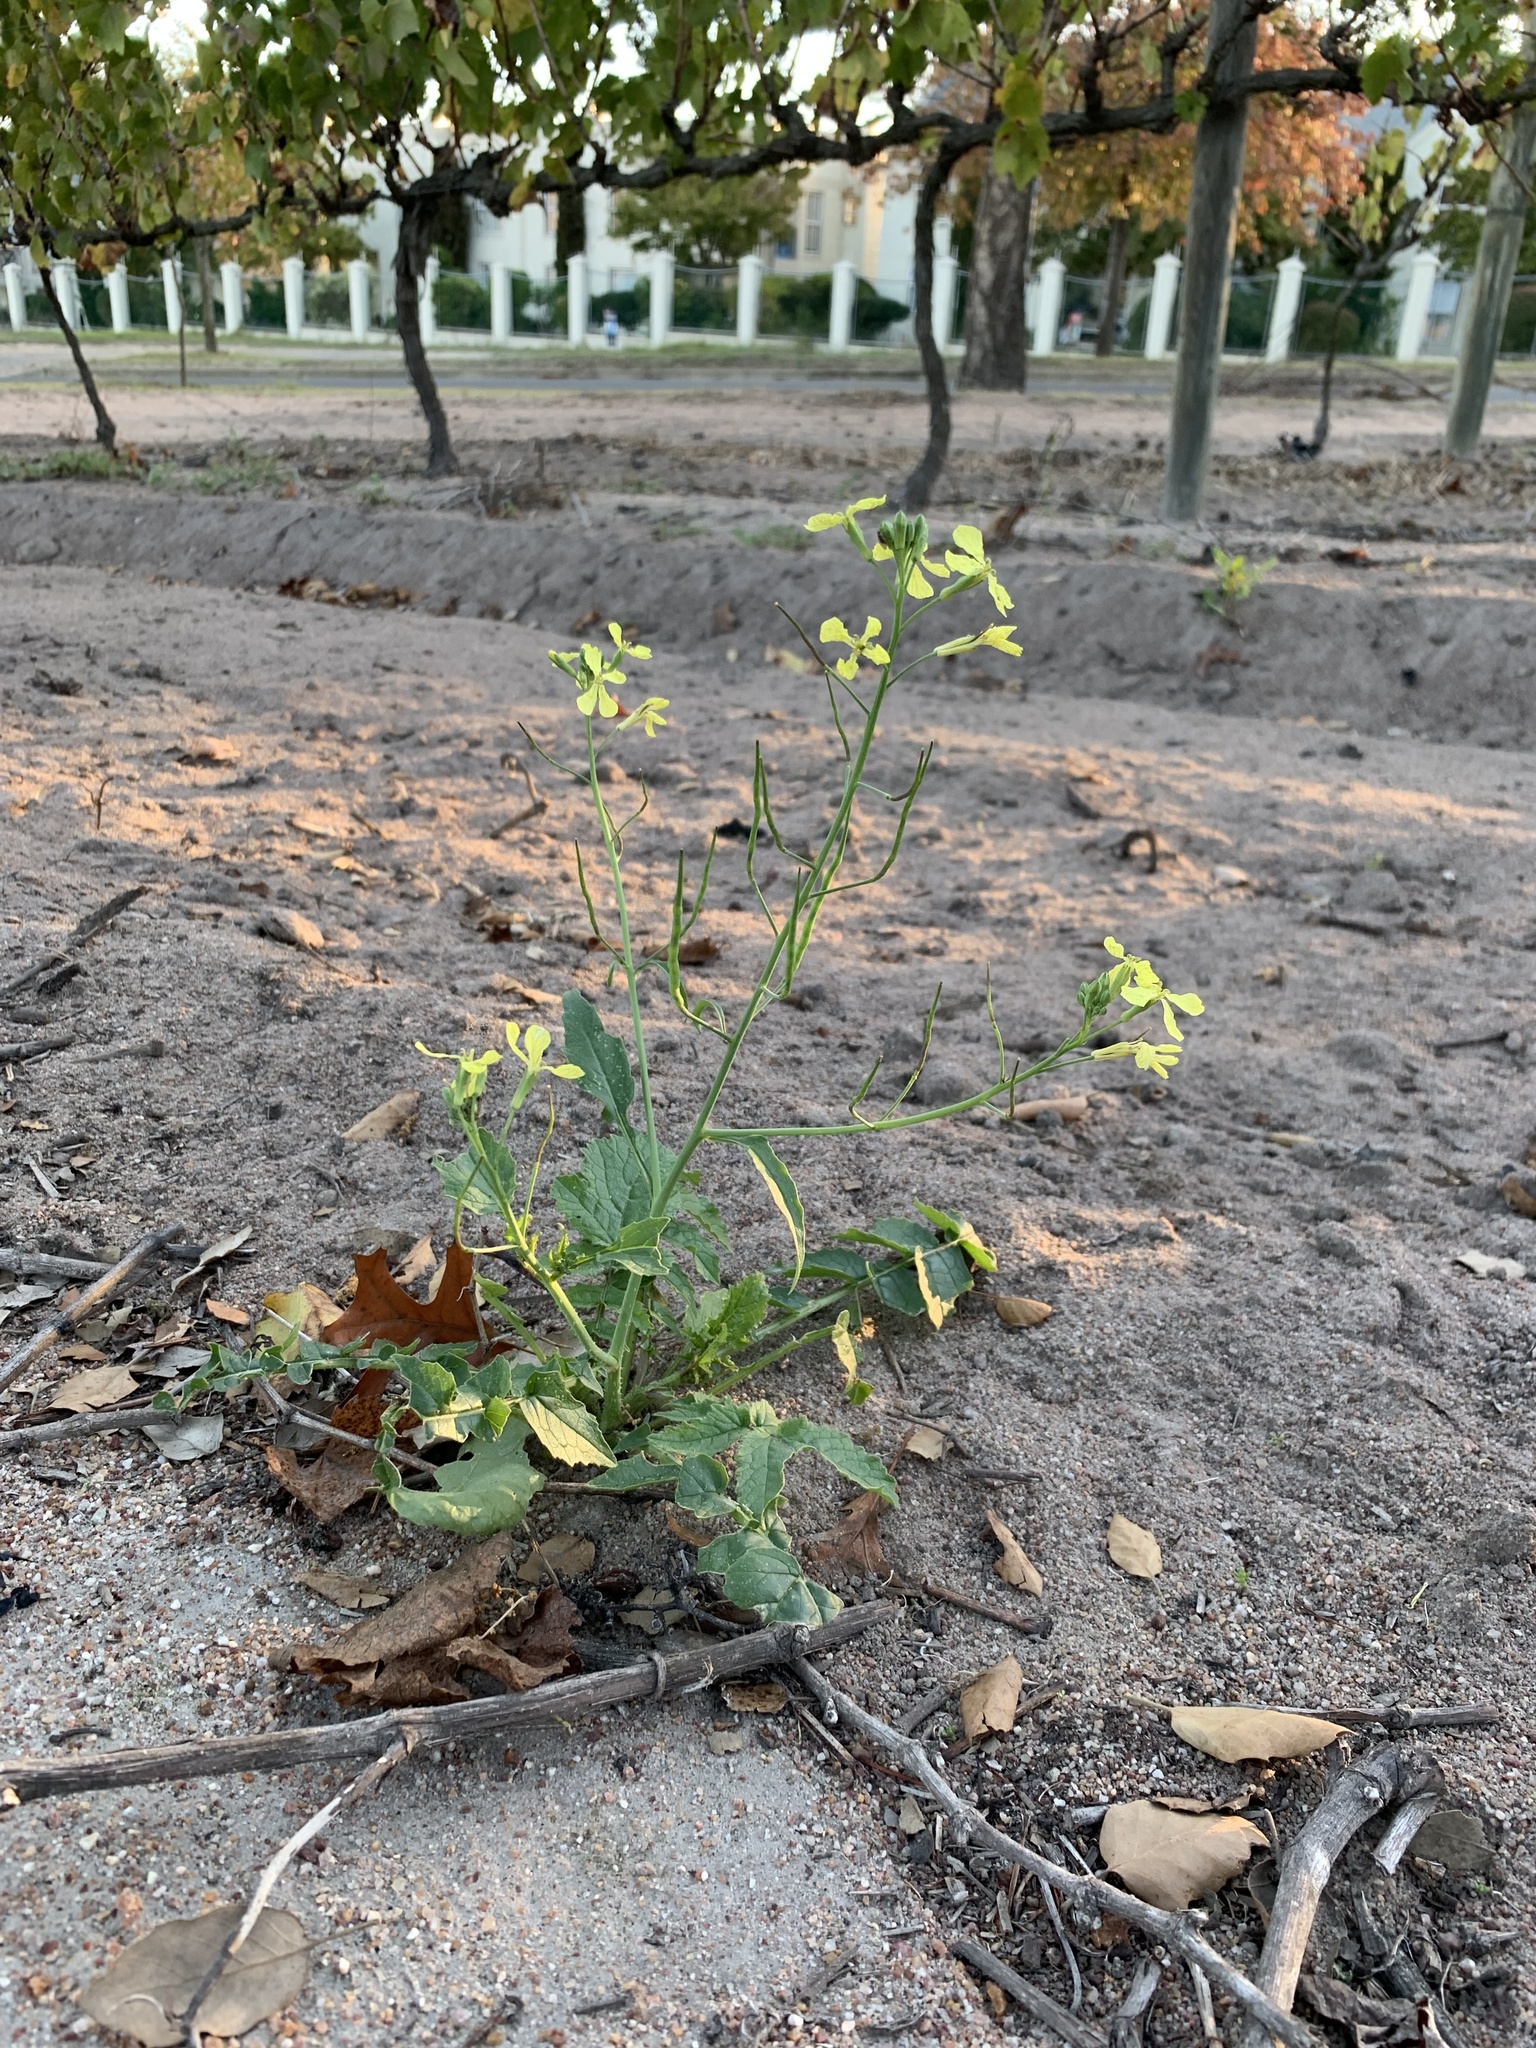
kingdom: Plantae
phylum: Tracheophyta
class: Magnoliopsida
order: Brassicales
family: Brassicaceae
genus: Raphanus
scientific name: Raphanus raphanistrum
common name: Wild radish
